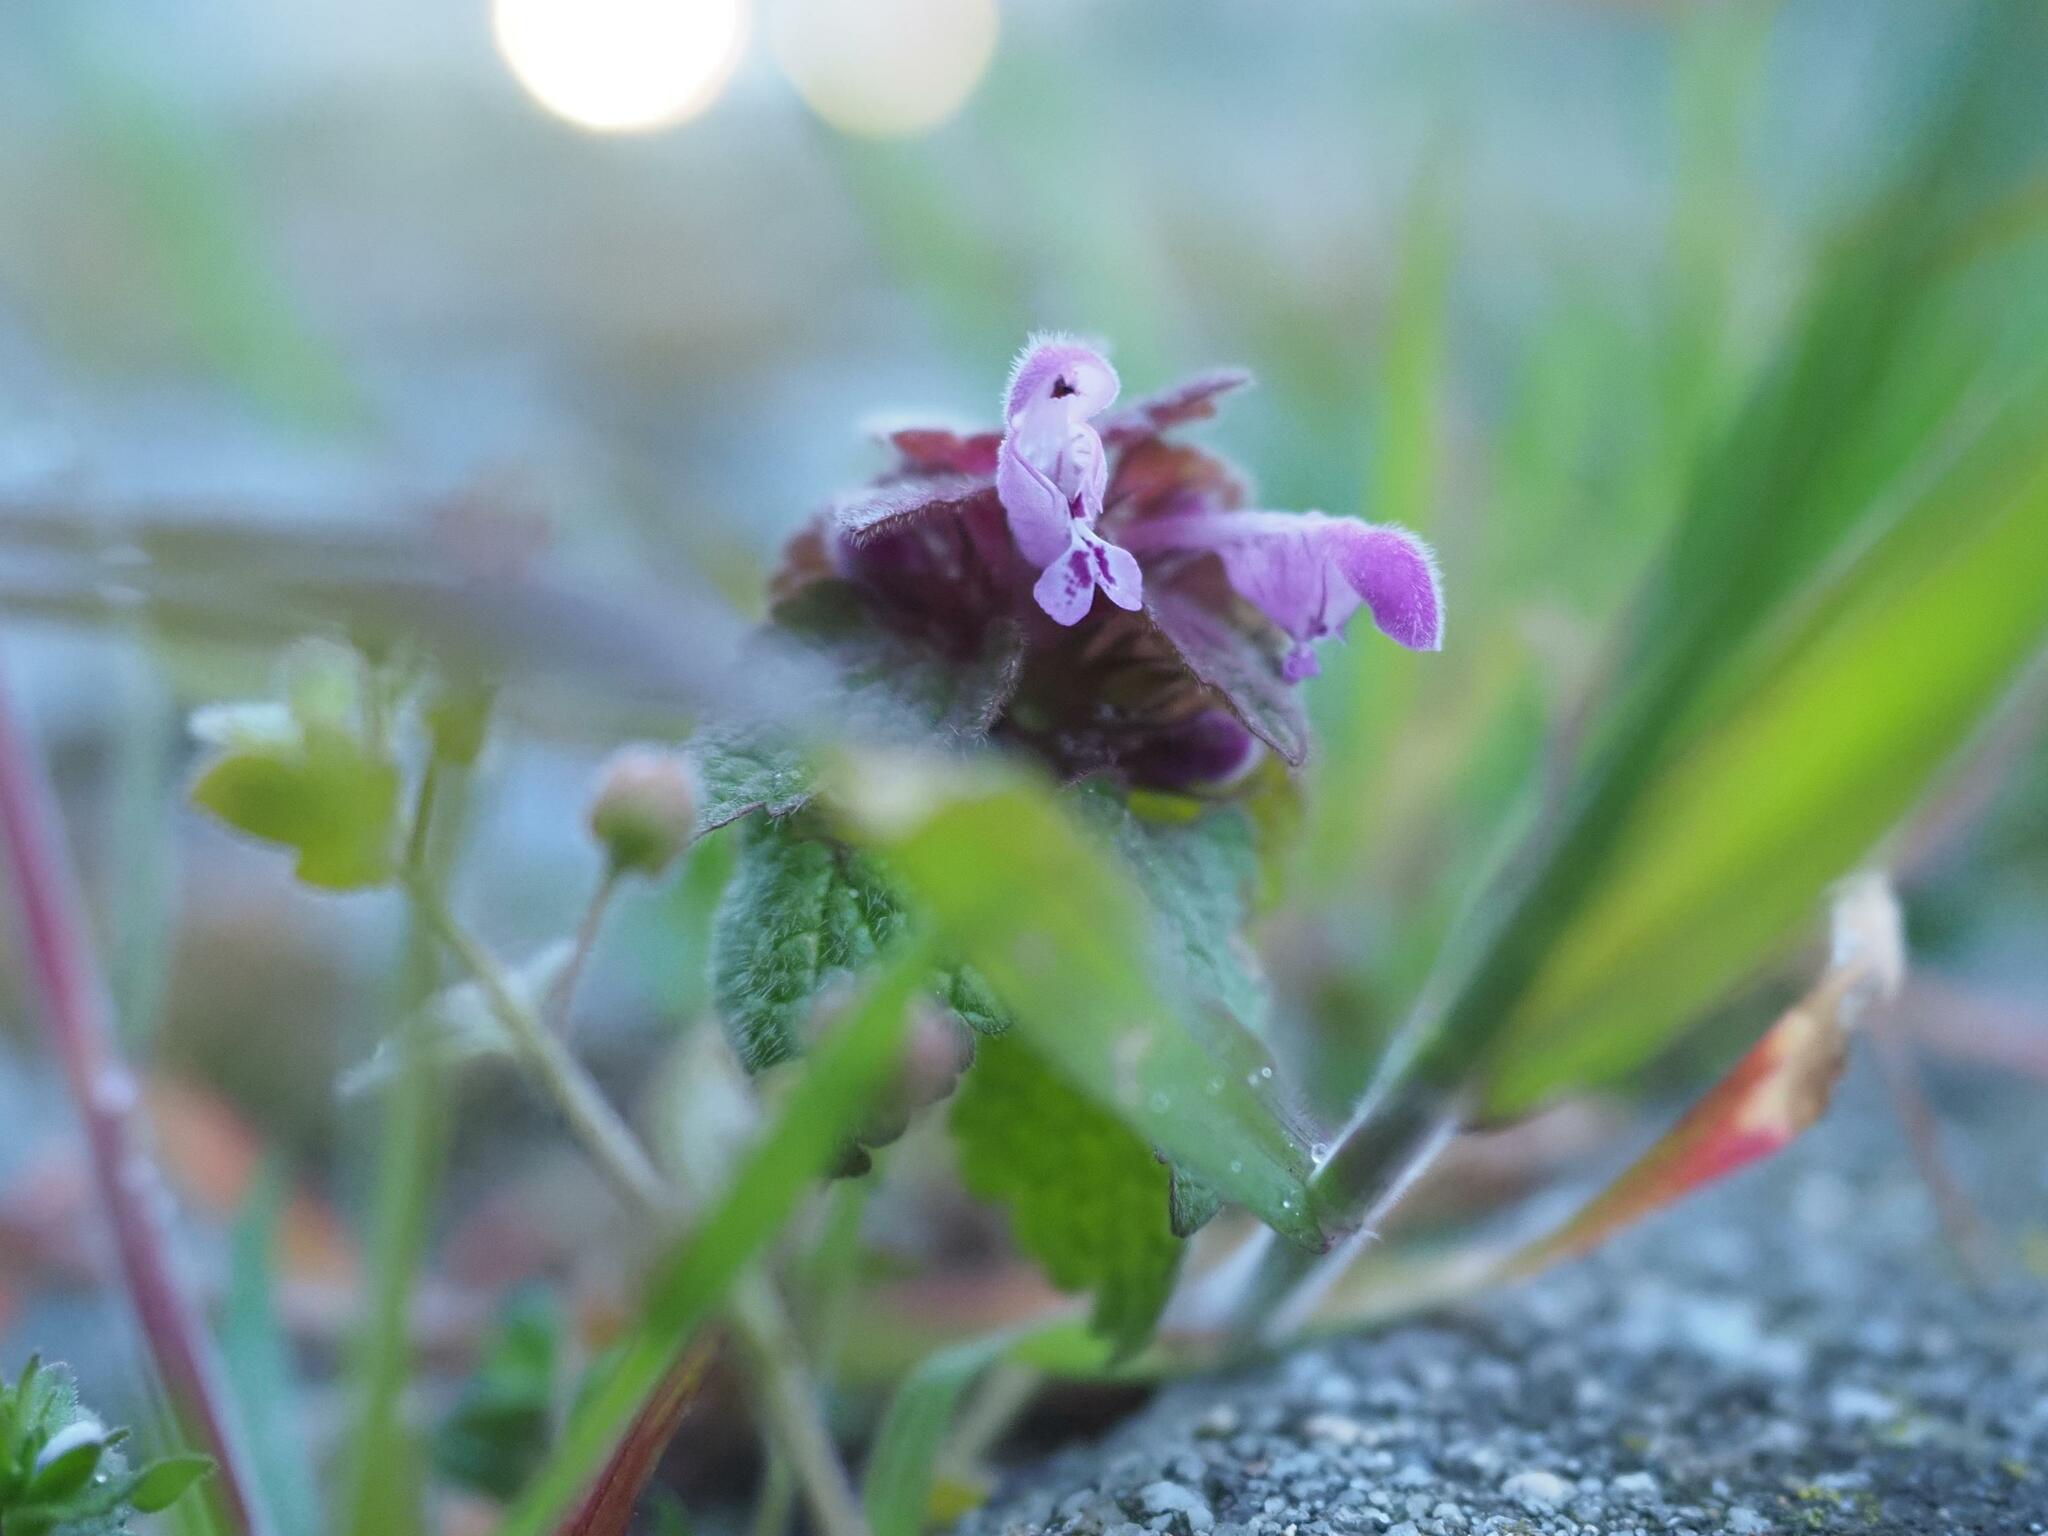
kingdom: Plantae
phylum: Tracheophyta
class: Magnoliopsida
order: Lamiales
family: Lamiaceae
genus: Lamium
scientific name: Lamium purpureum
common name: Red dead-nettle
